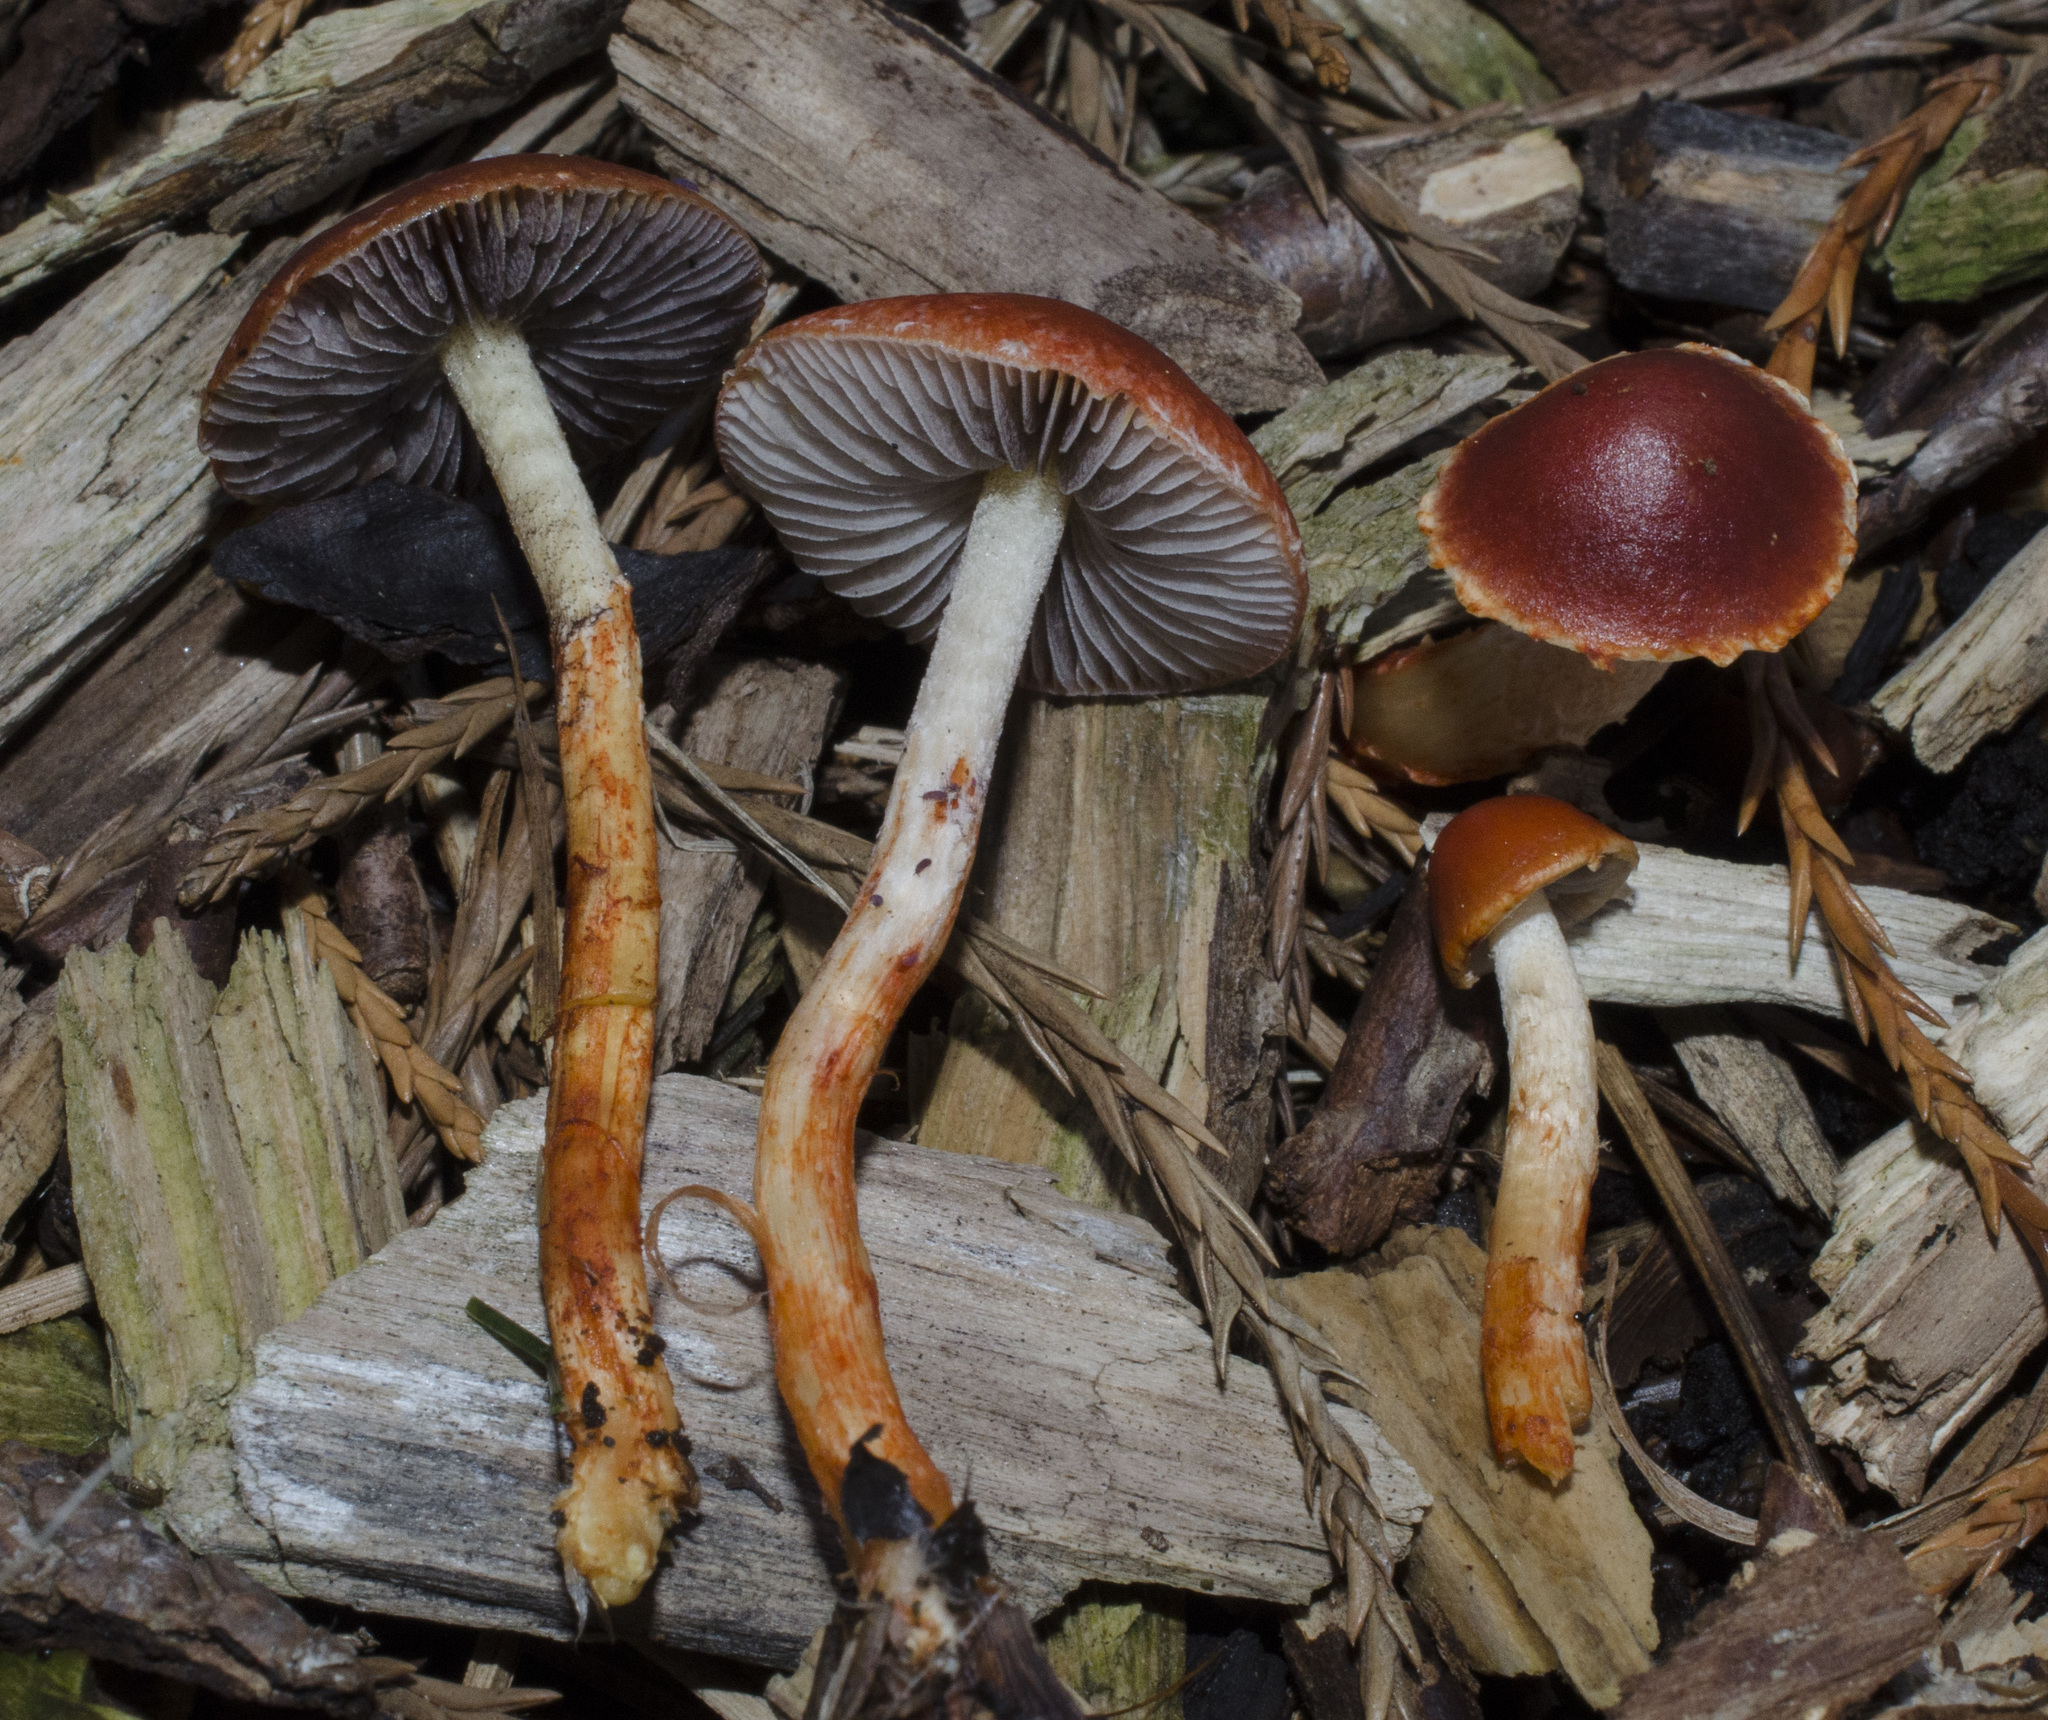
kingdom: Fungi
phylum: Basidiomycota
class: Agaricomycetes
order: Agaricales
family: Strophariaceae
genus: Leratiomyces
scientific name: Leratiomyces ceres
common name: Redlead roundhead
